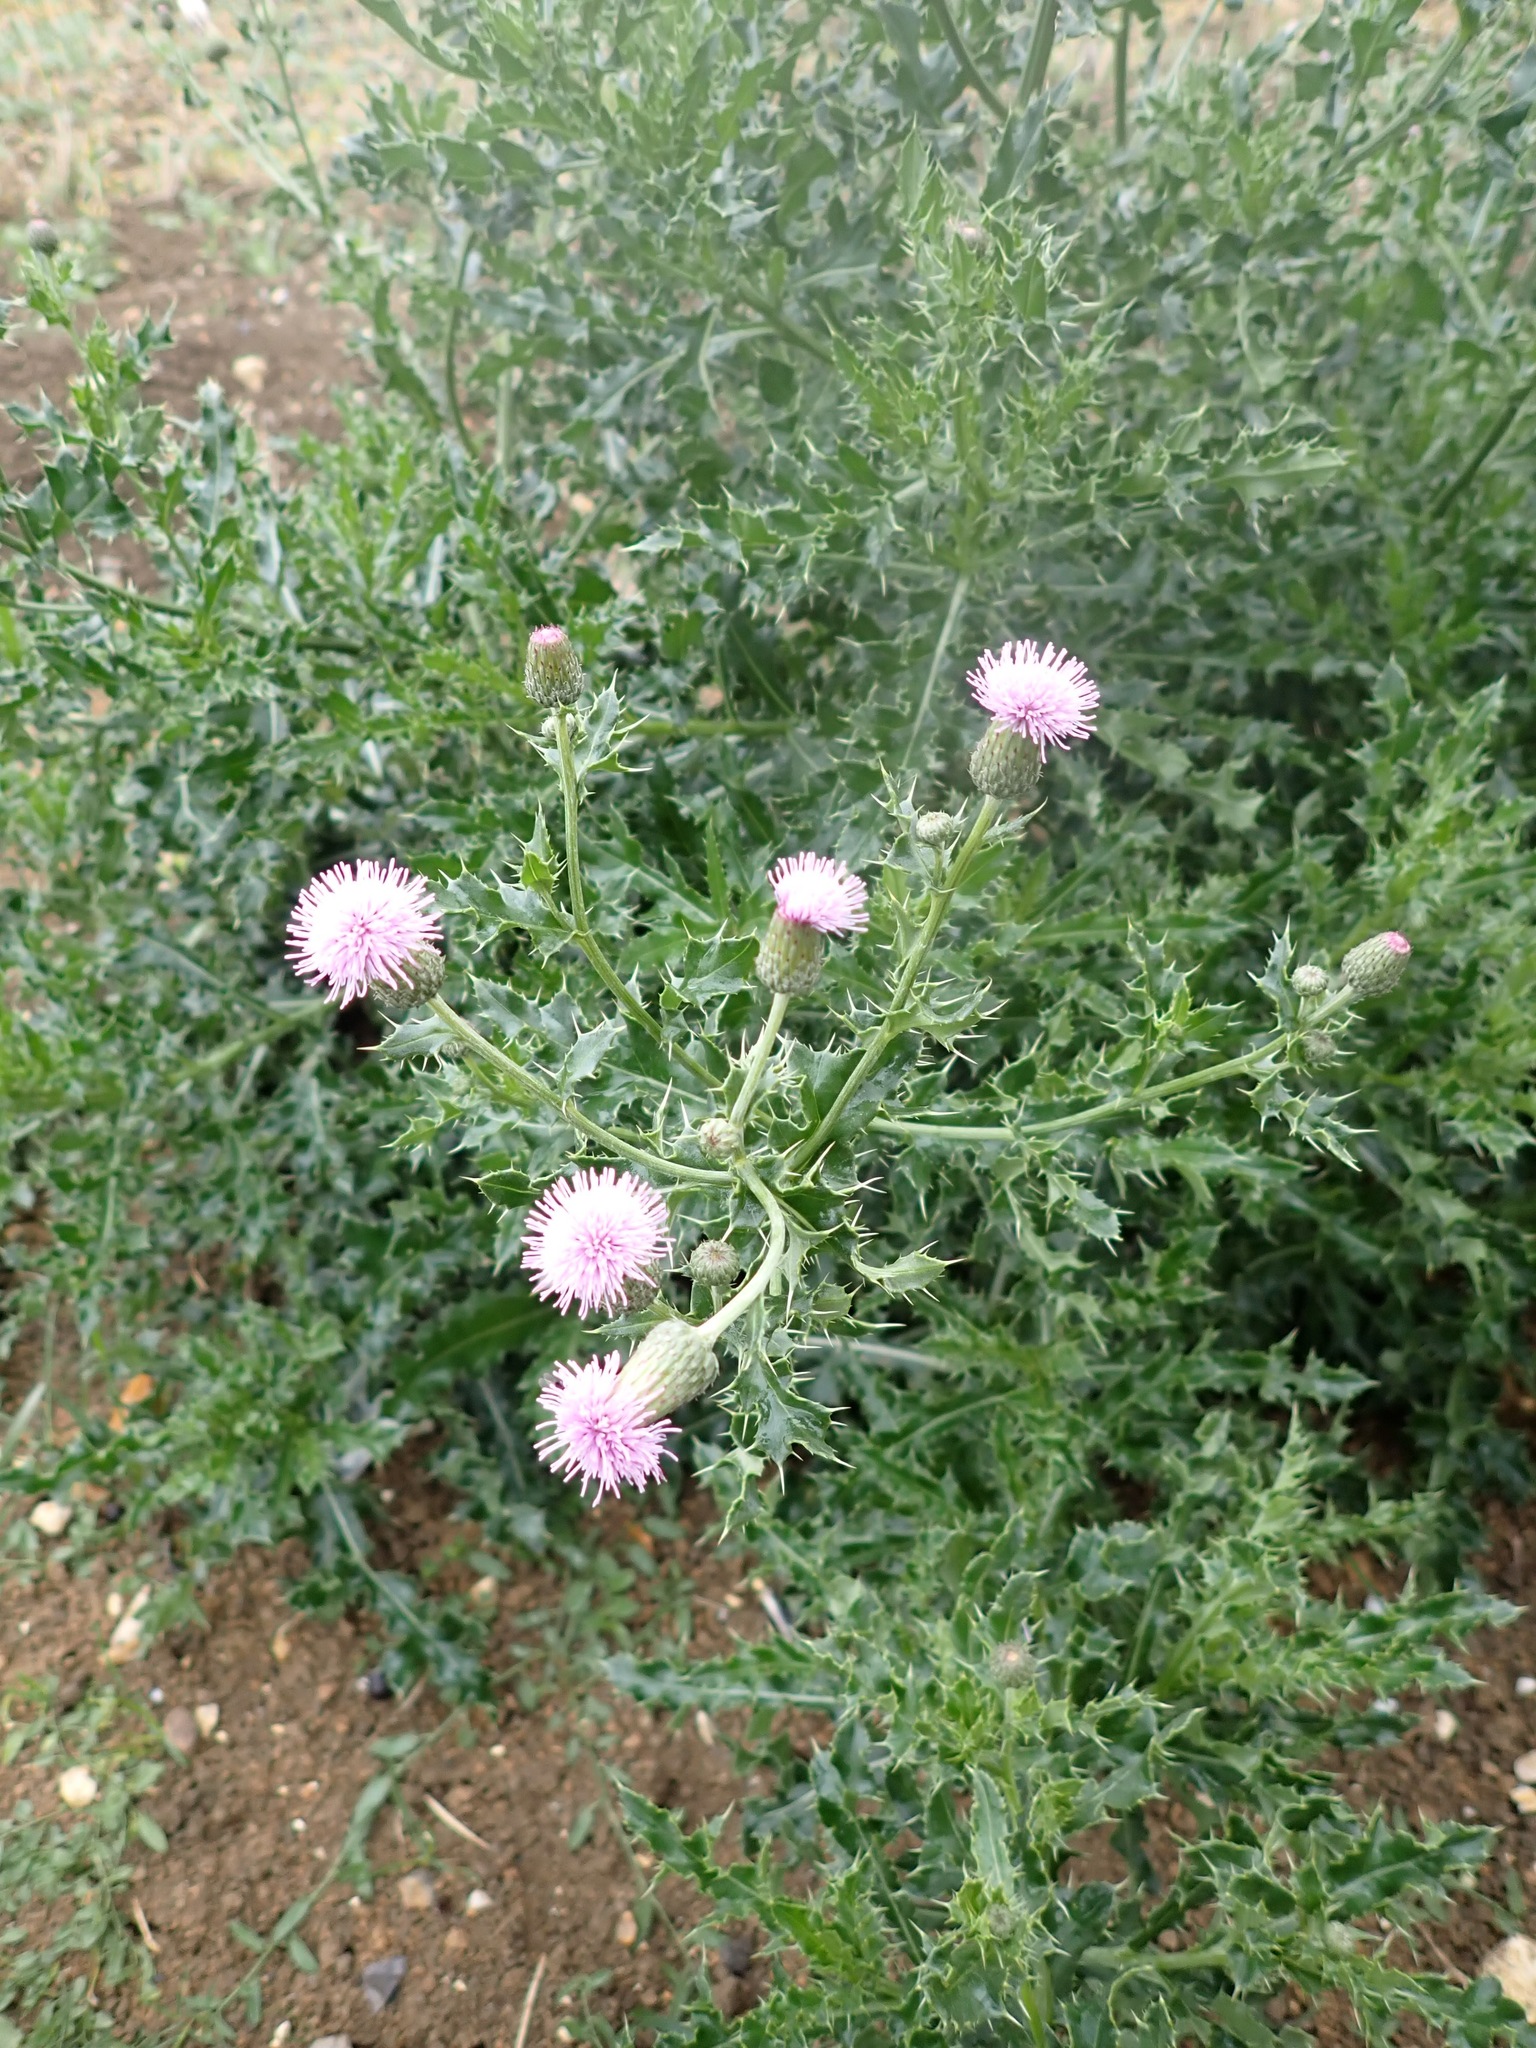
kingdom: Plantae
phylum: Tracheophyta
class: Magnoliopsida
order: Asterales
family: Asteraceae
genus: Cirsium
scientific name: Cirsium arvense
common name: Creeping thistle
